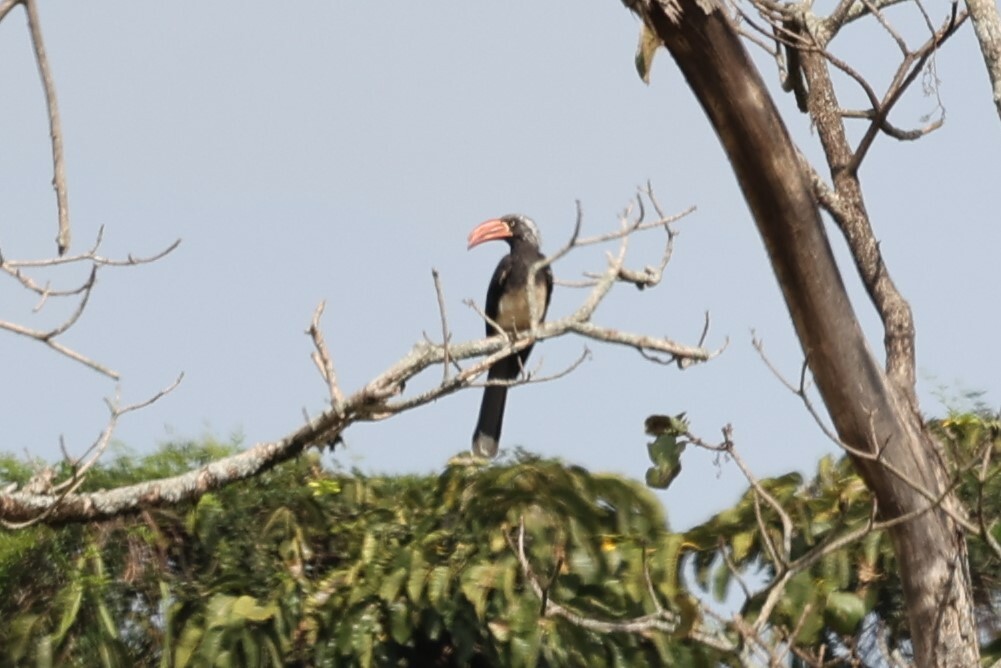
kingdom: Animalia
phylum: Chordata
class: Aves
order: Bucerotiformes
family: Bucerotidae
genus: Lophoceros
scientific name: Lophoceros alboterminatus
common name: Crowned hornbill
